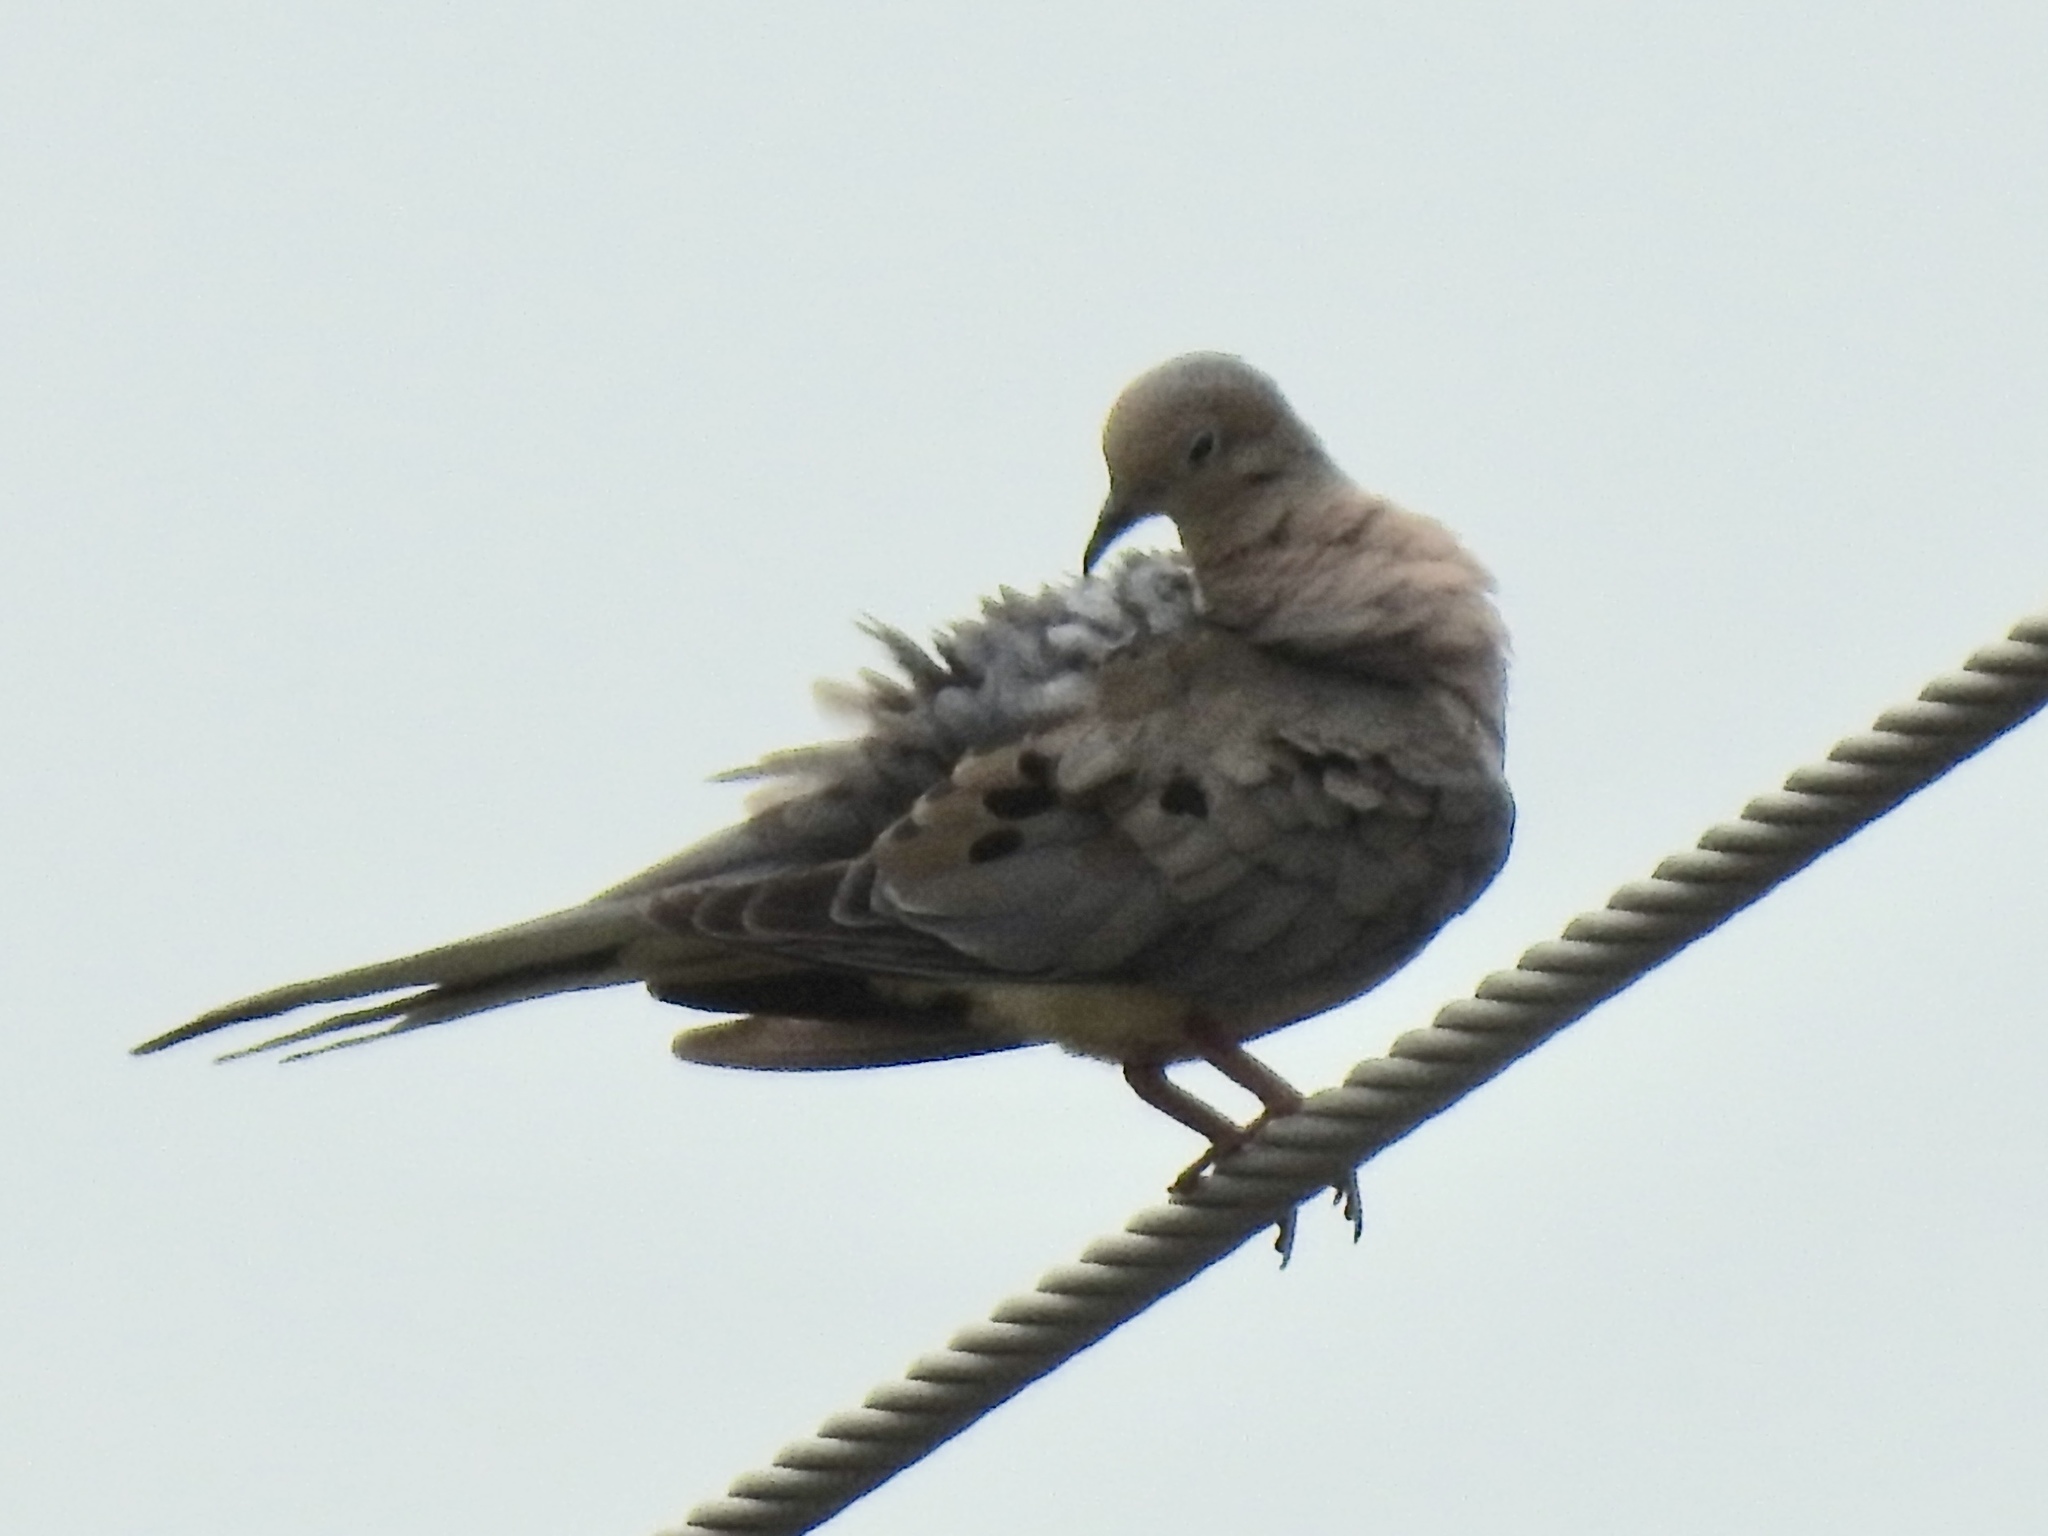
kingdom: Animalia
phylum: Chordata
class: Aves
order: Columbiformes
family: Columbidae
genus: Zenaida
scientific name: Zenaida macroura
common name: Mourning dove
